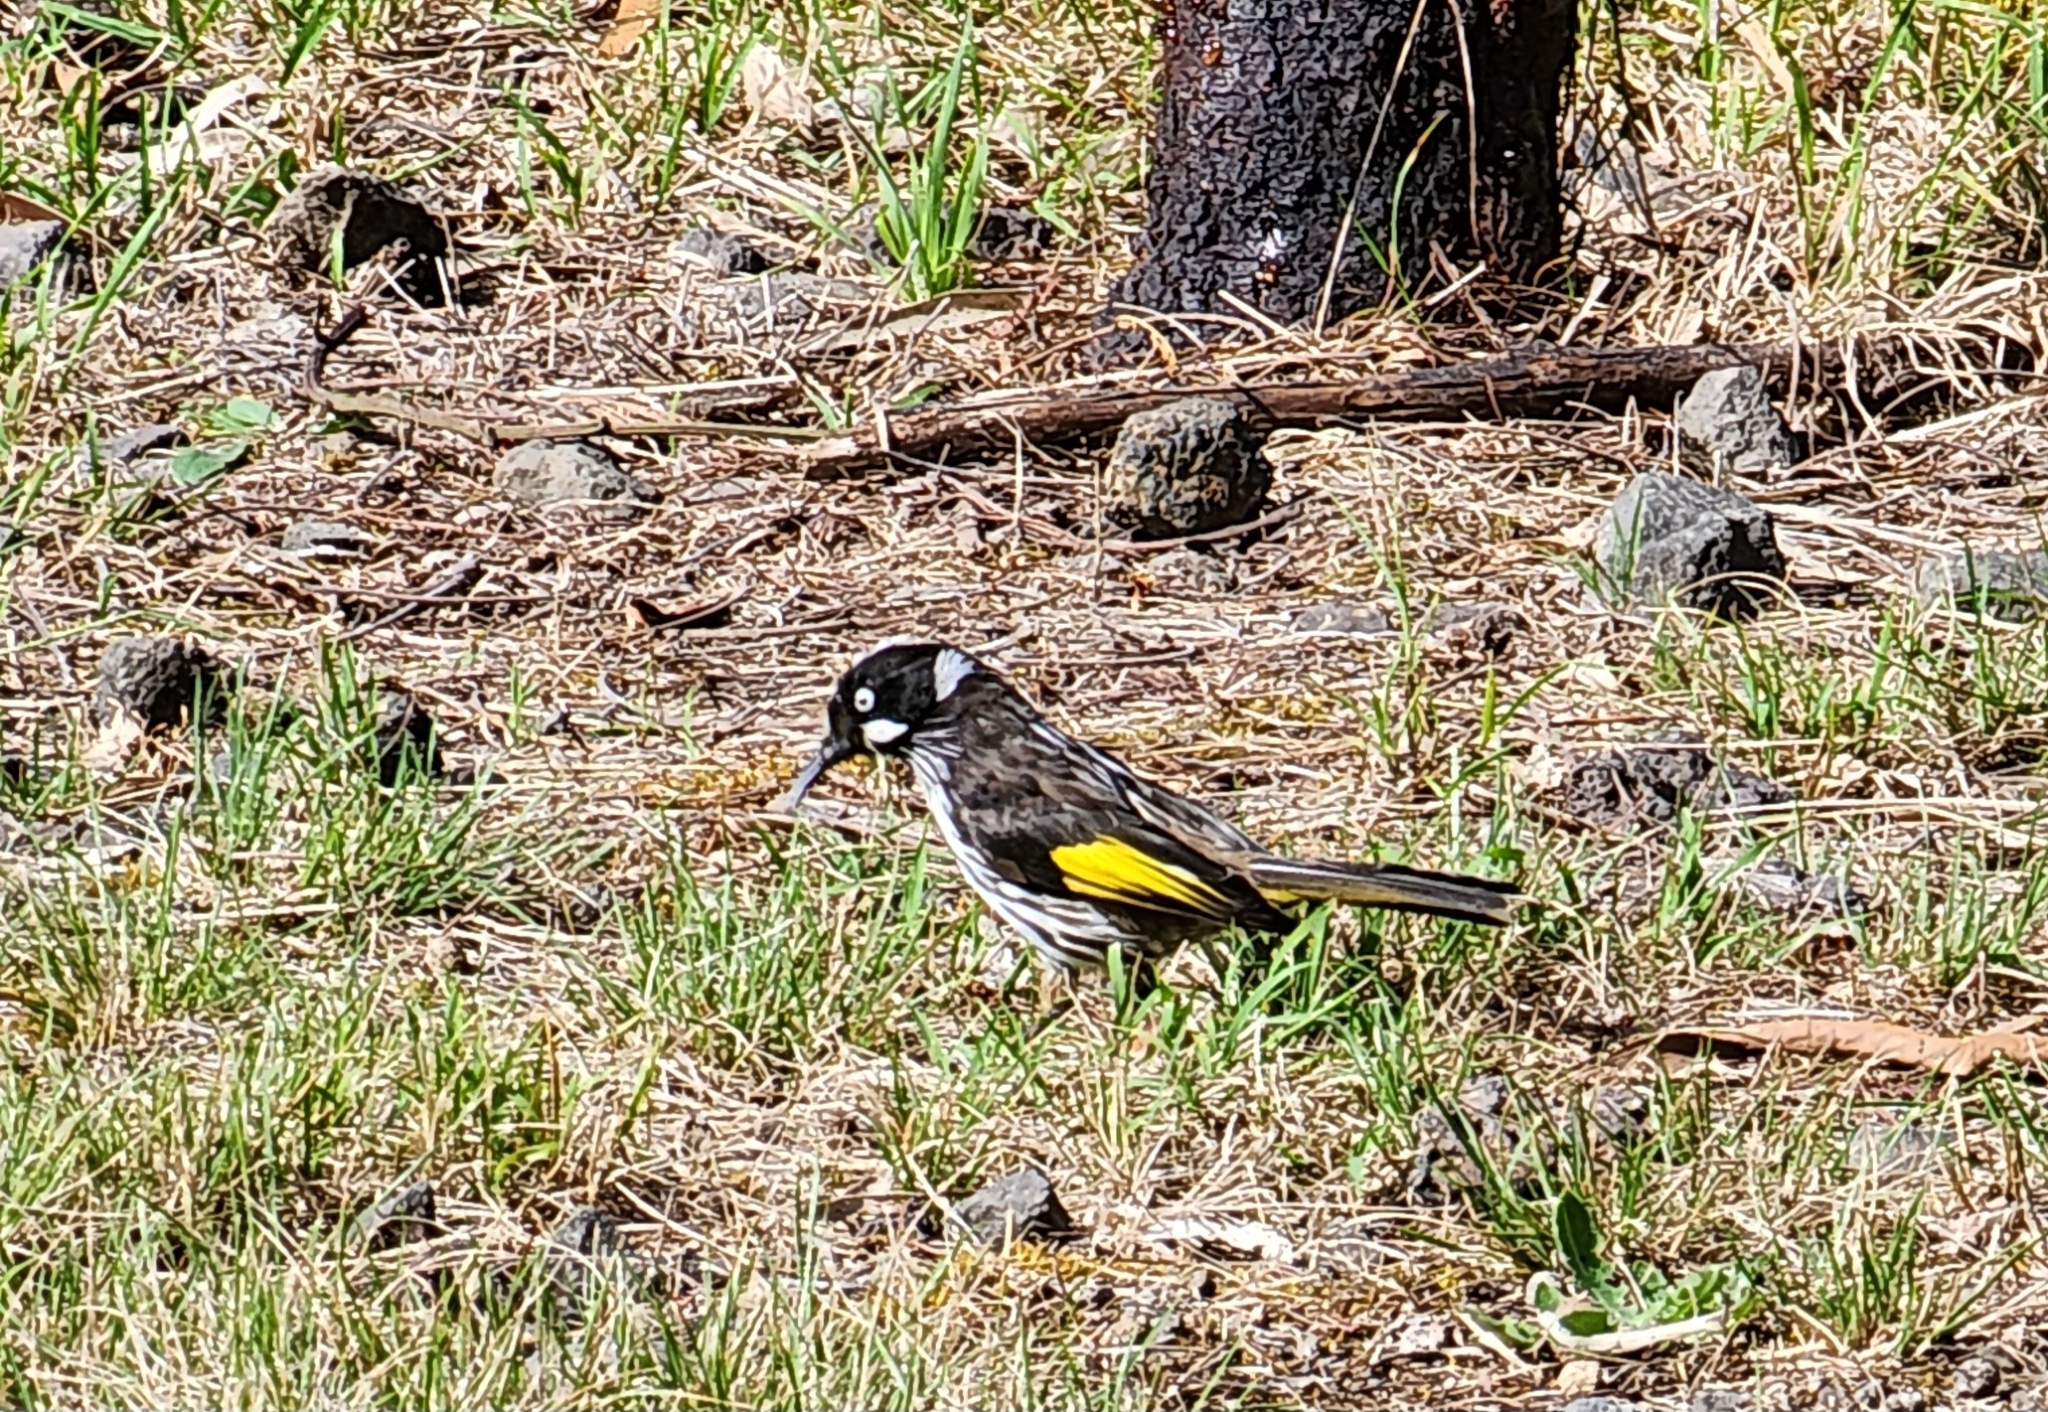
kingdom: Animalia
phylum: Chordata
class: Aves
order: Passeriformes
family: Meliphagidae
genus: Phylidonyris
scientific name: Phylidonyris novaehollandiae
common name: New holland honeyeater
